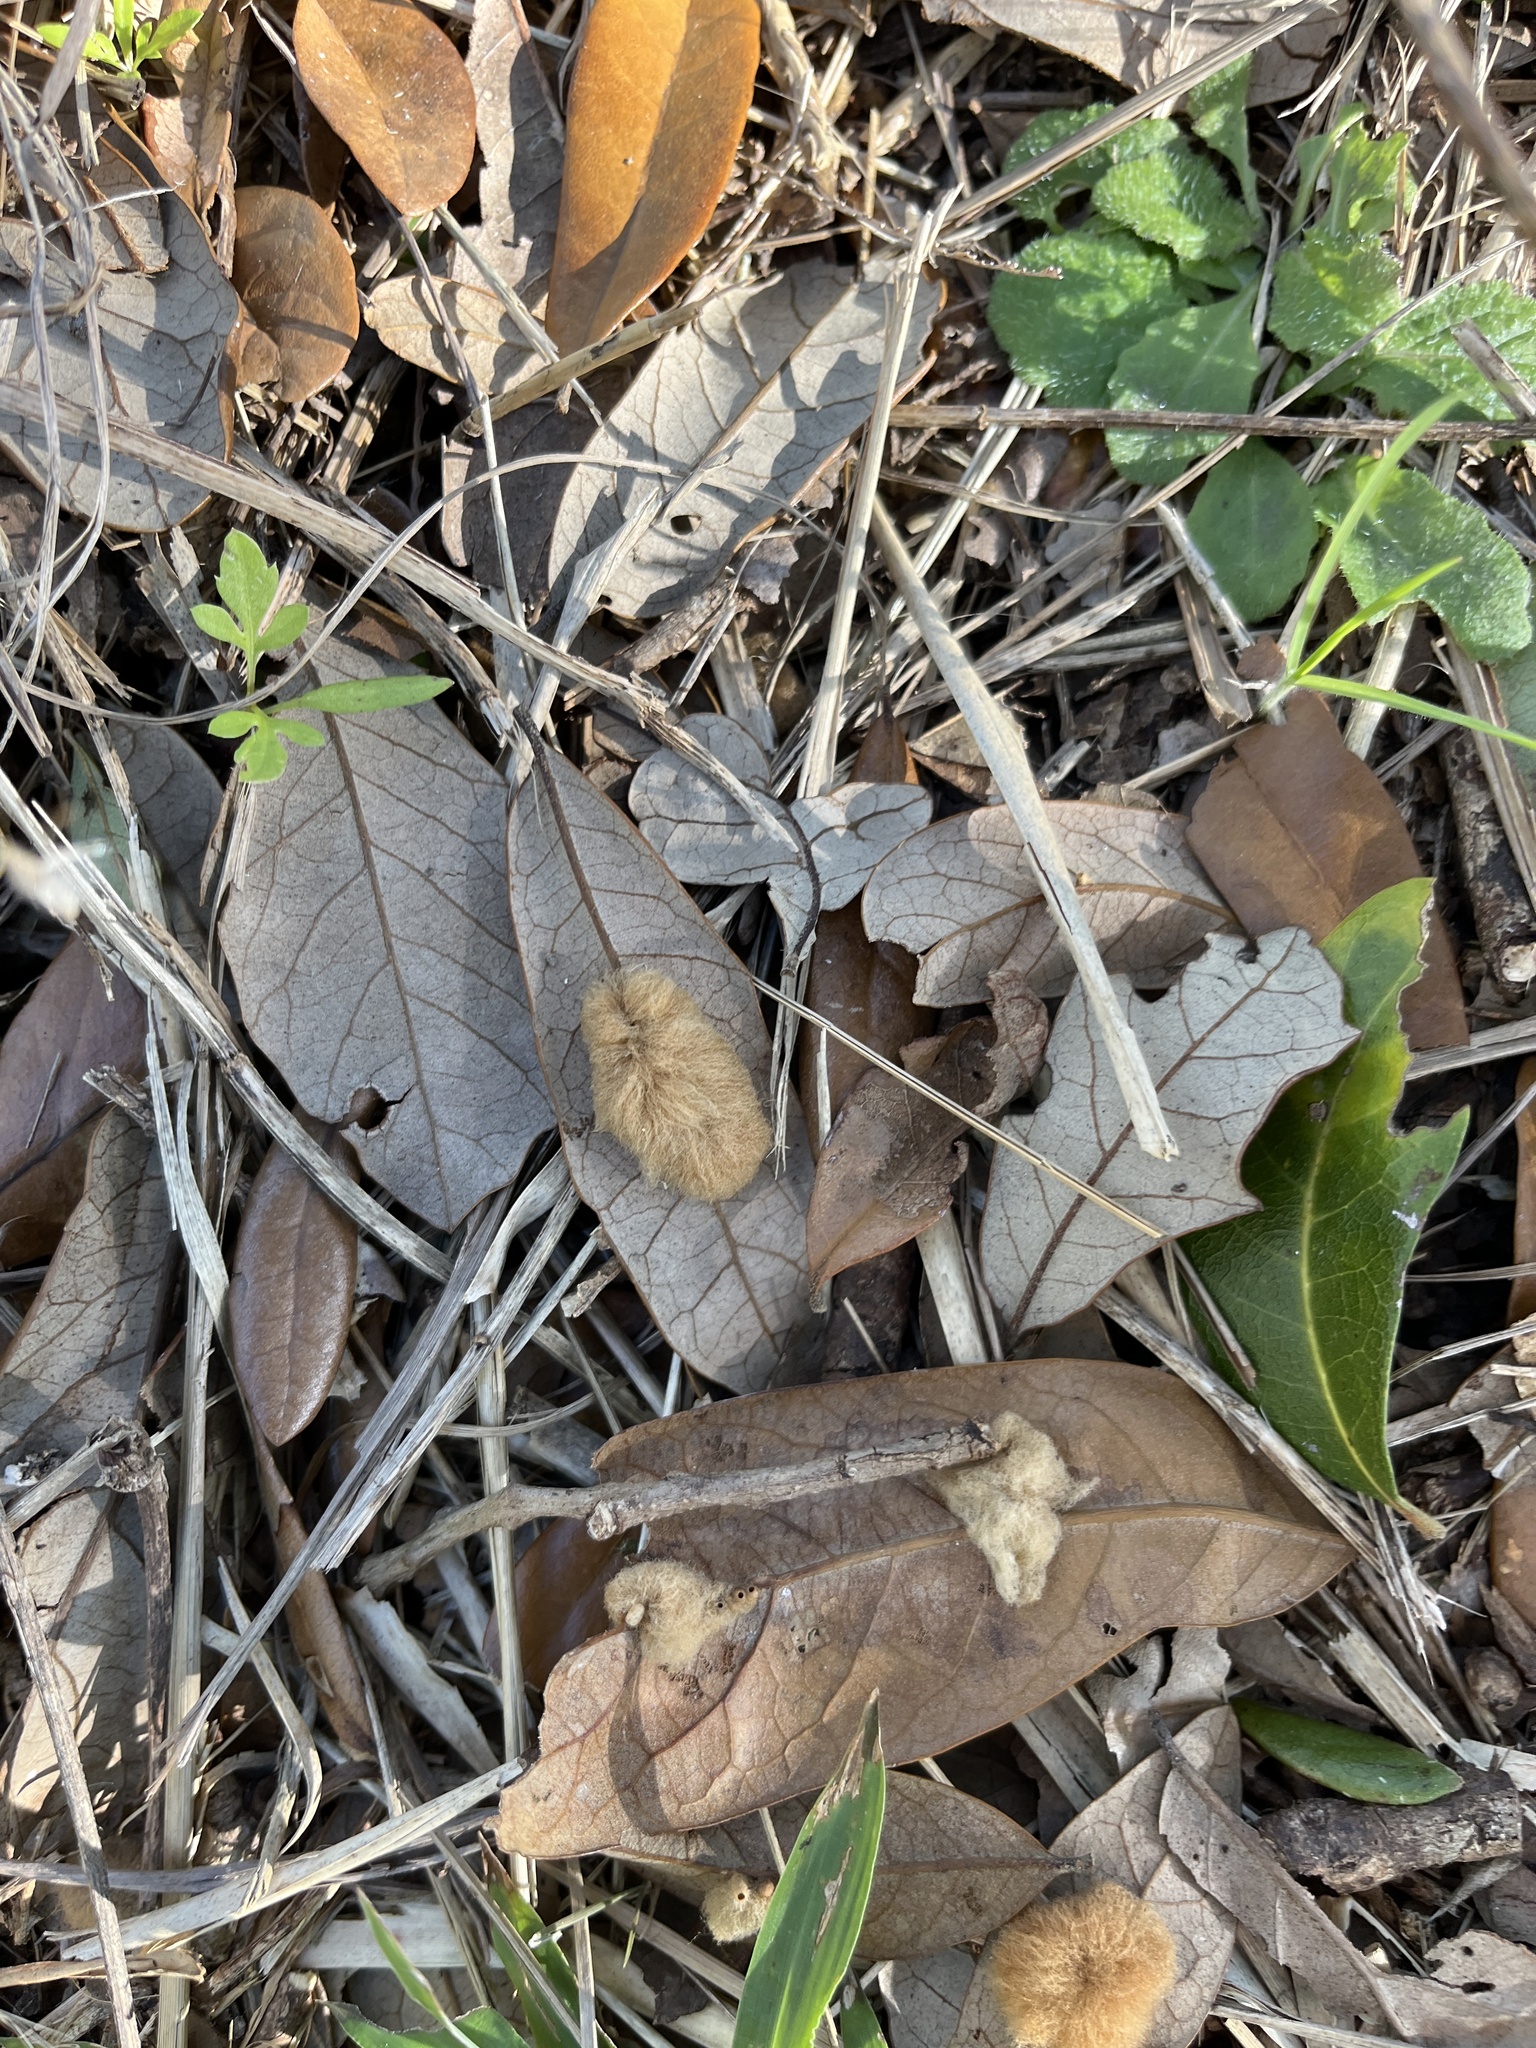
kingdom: Animalia
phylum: Arthropoda
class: Insecta
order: Hymenoptera
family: Cynipidae
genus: Andricus
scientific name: Andricus Druon quercuslanigerum
